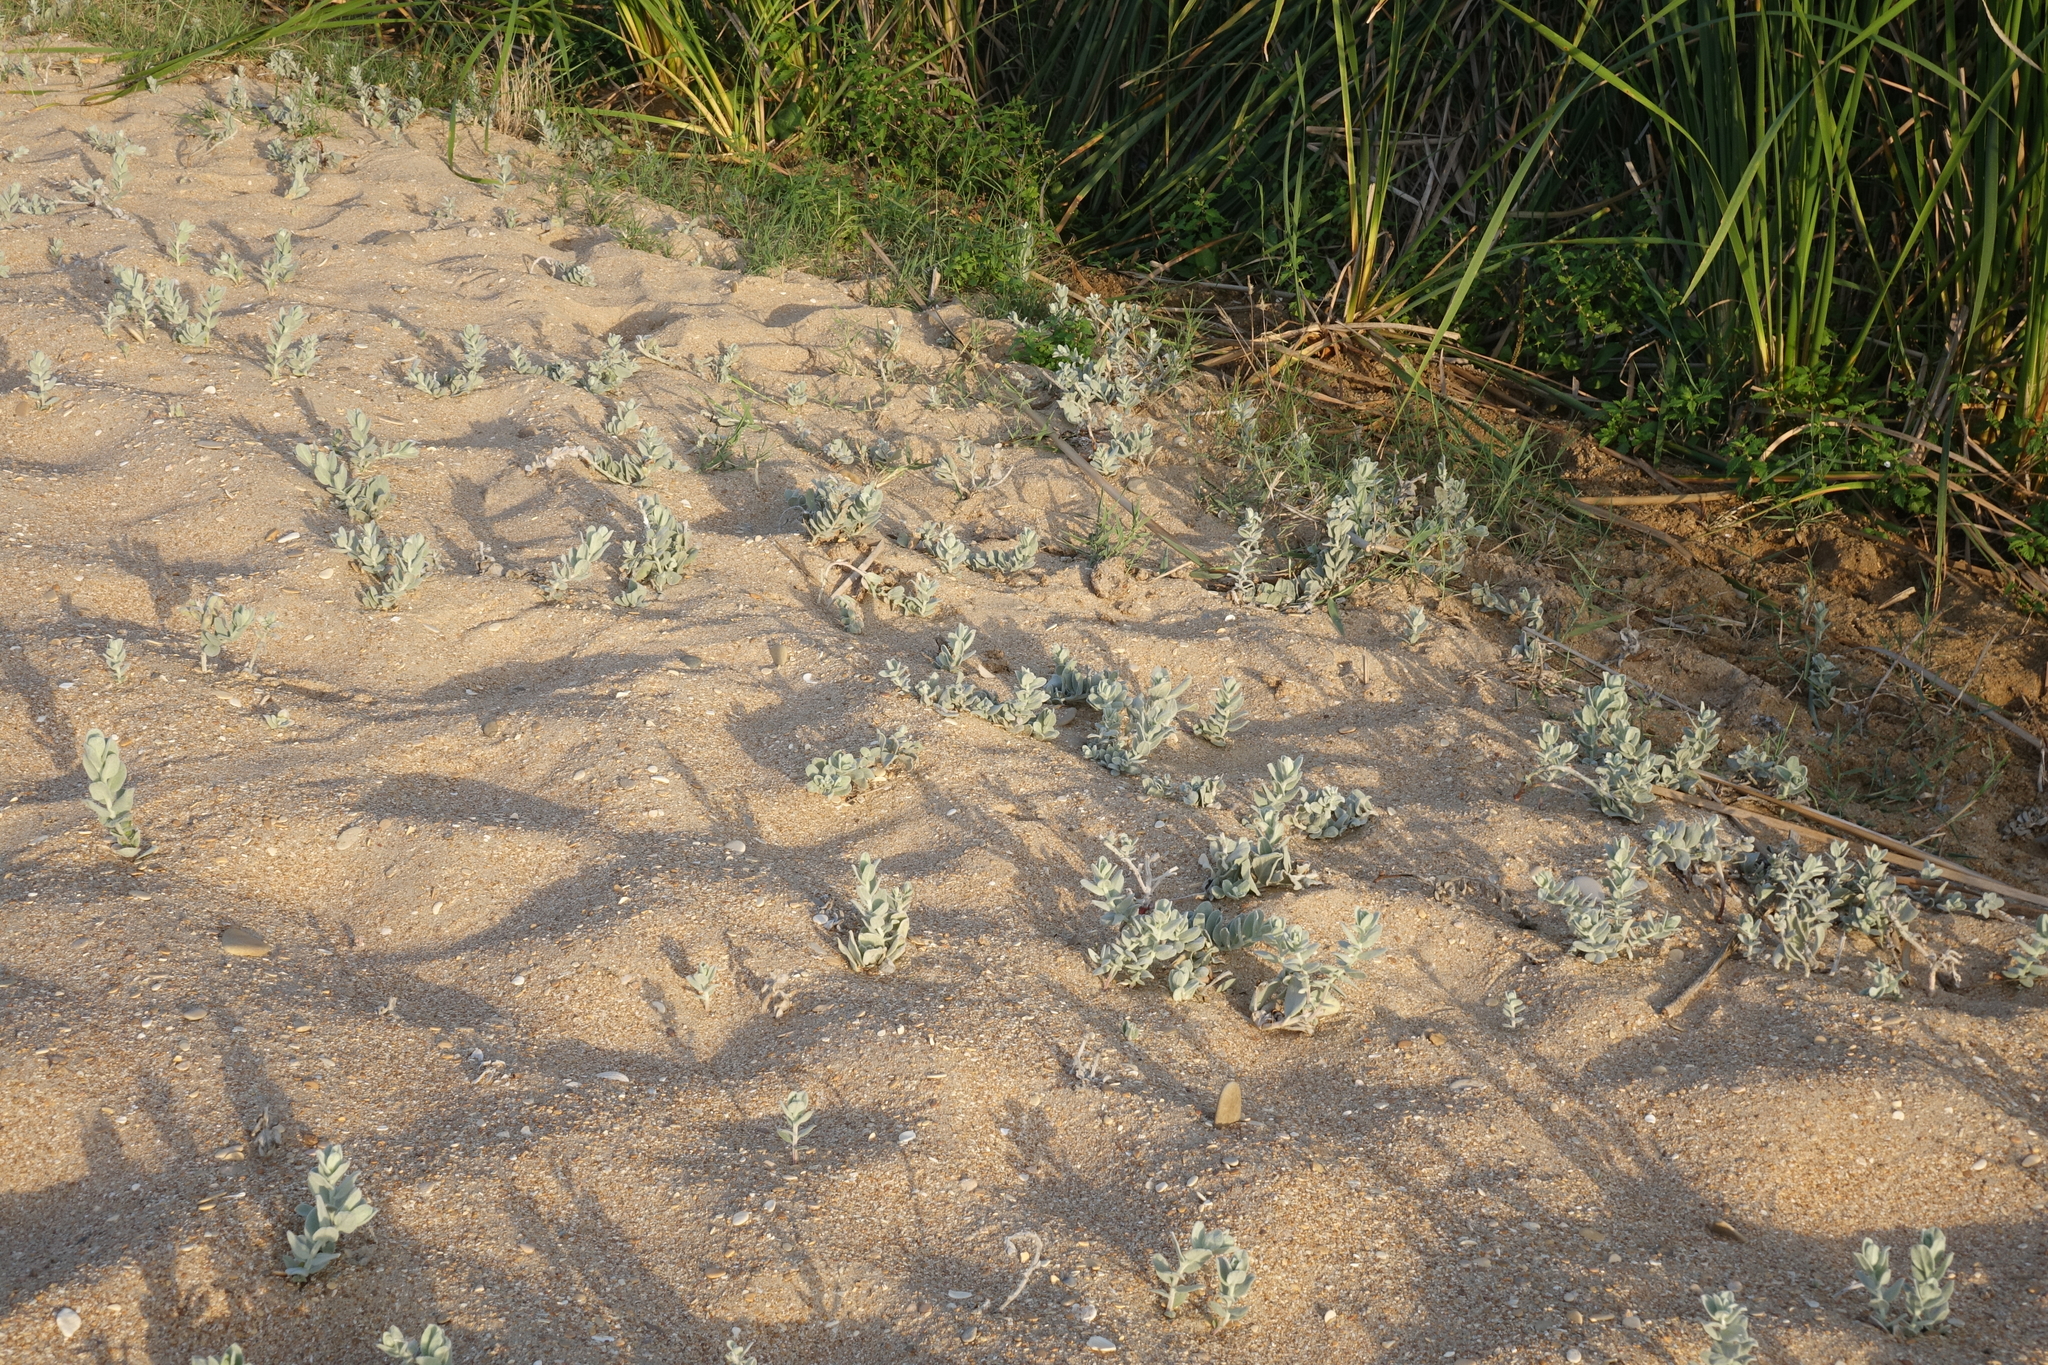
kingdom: Plantae
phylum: Tracheophyta
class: Magnoliopsida
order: Solanales
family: Convolvulaceae
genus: Convolvulus
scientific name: Convolvulus persicus
